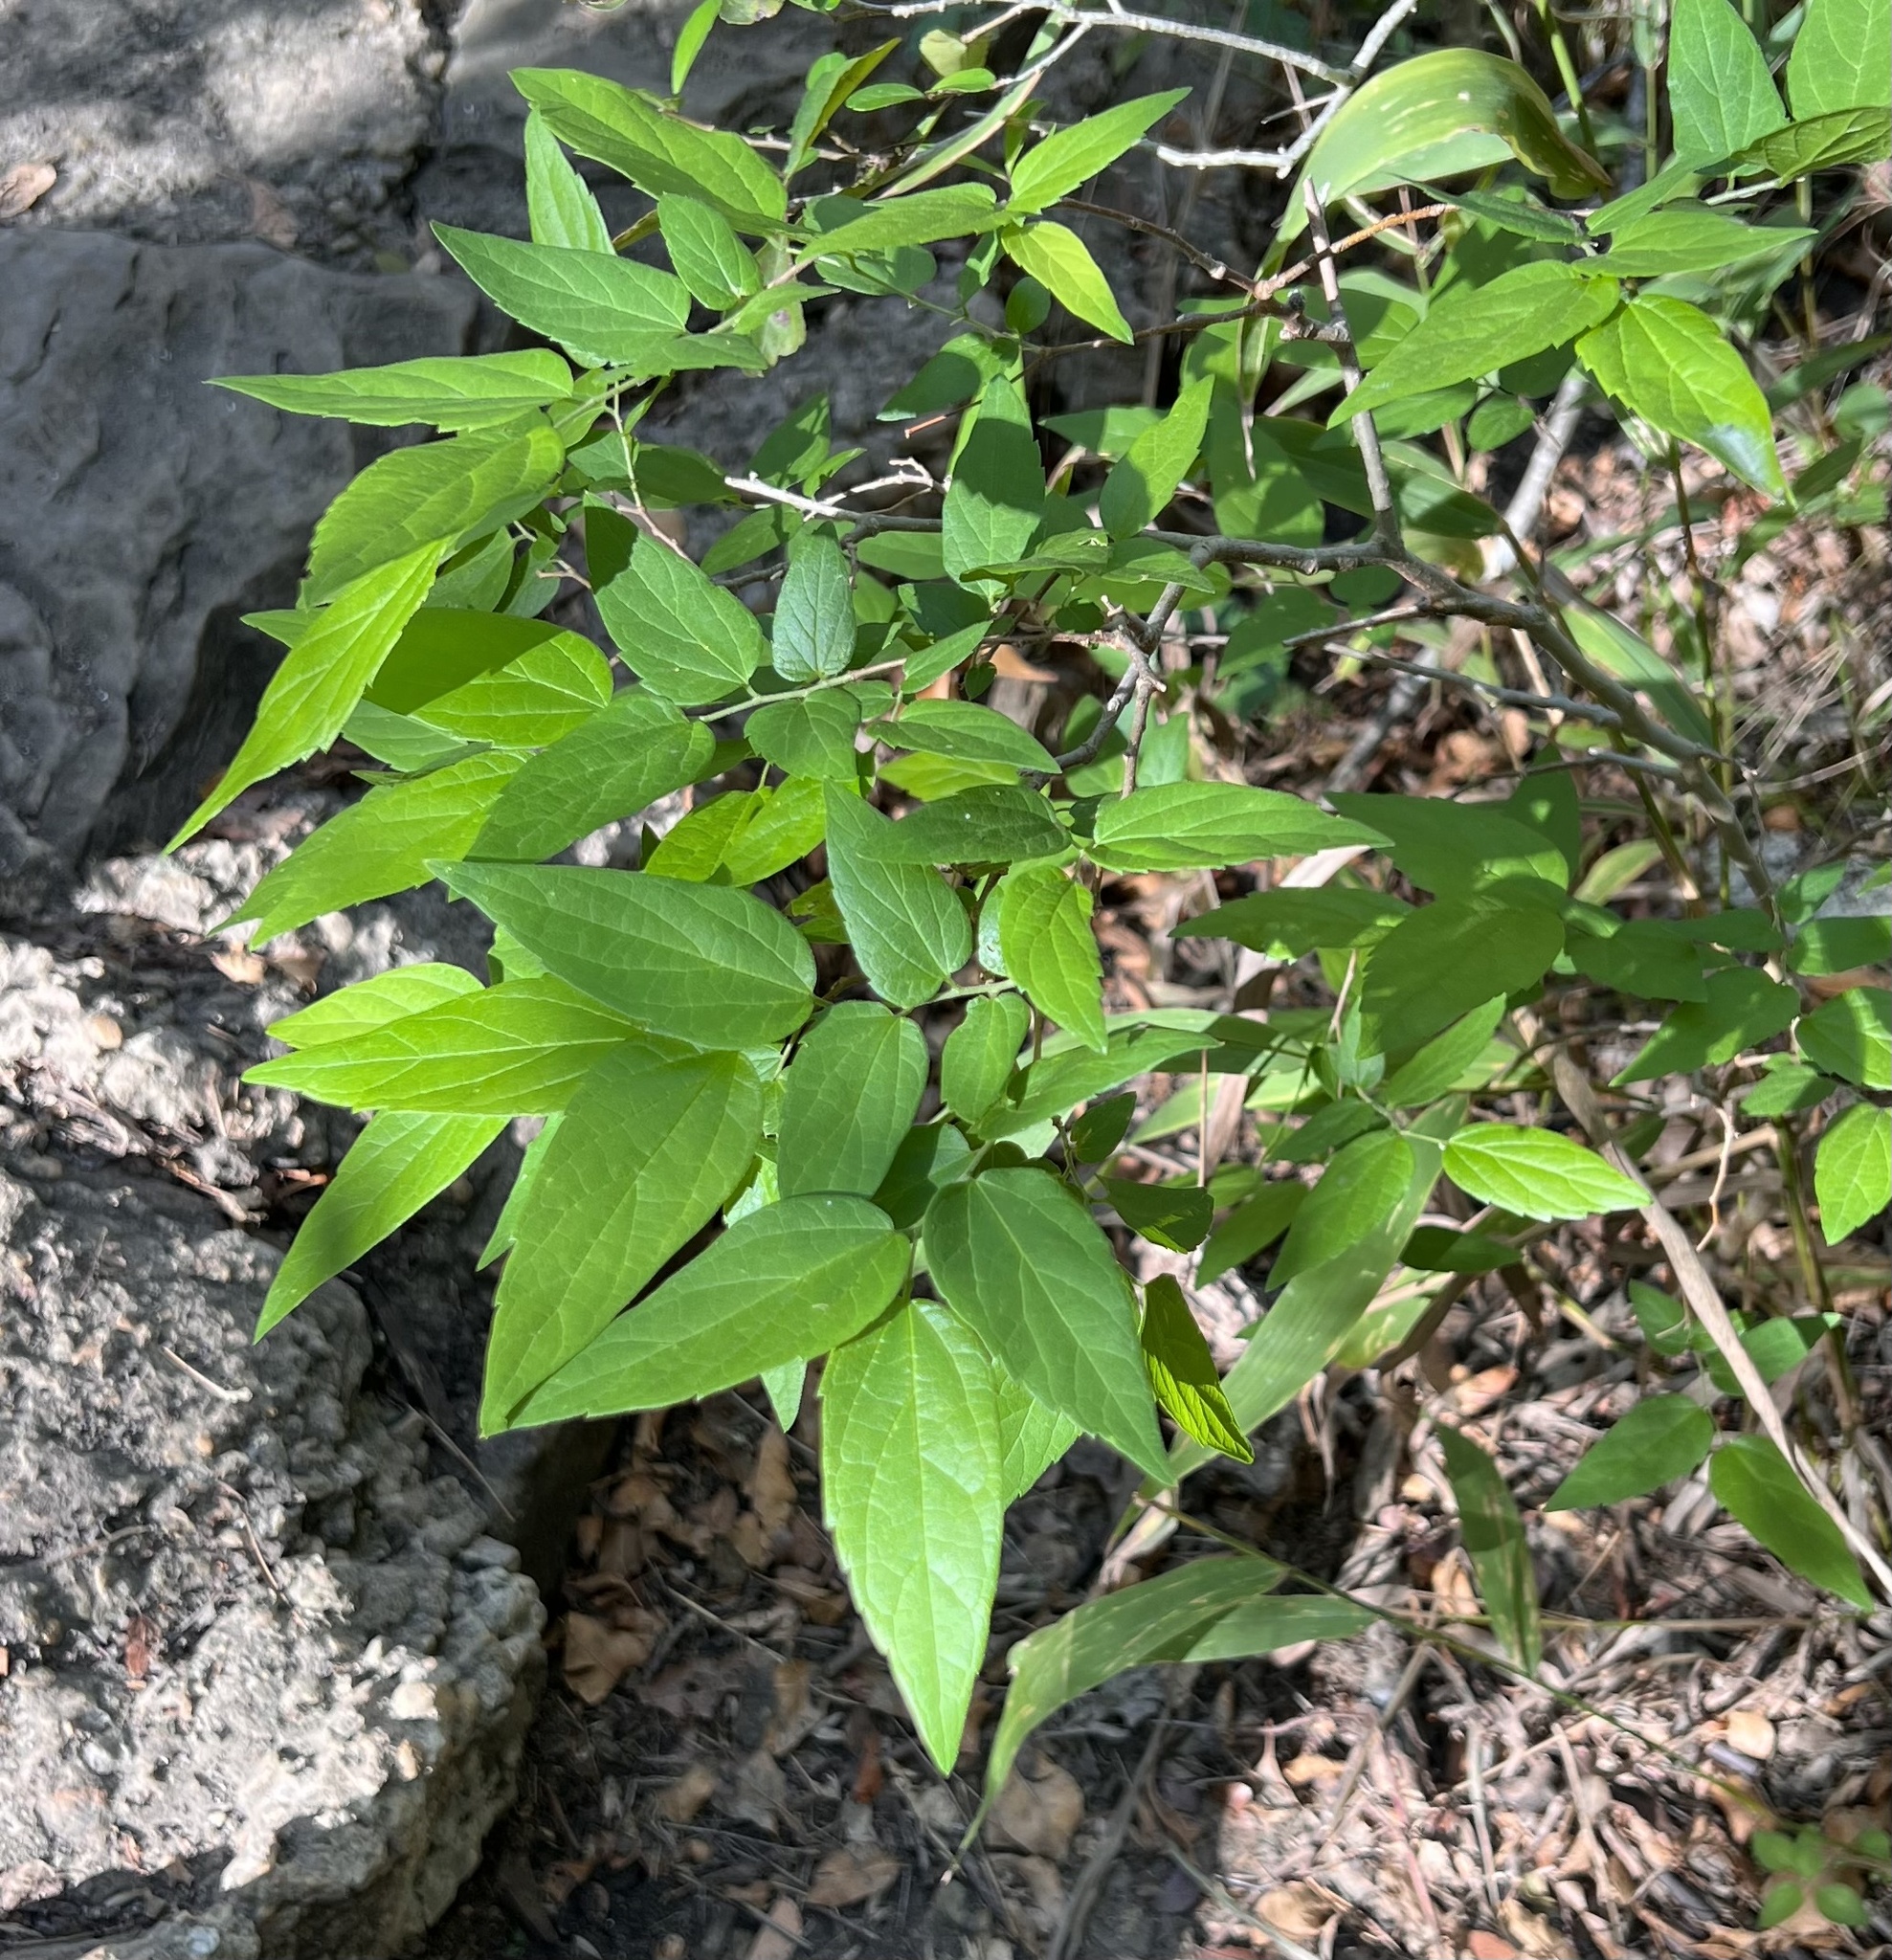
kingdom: Plantae
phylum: Tracheophyta
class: Magnoliopsida
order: Rosales
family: Cannabaceae
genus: Celtis
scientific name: Celtis laevigata
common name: Sugarberry
